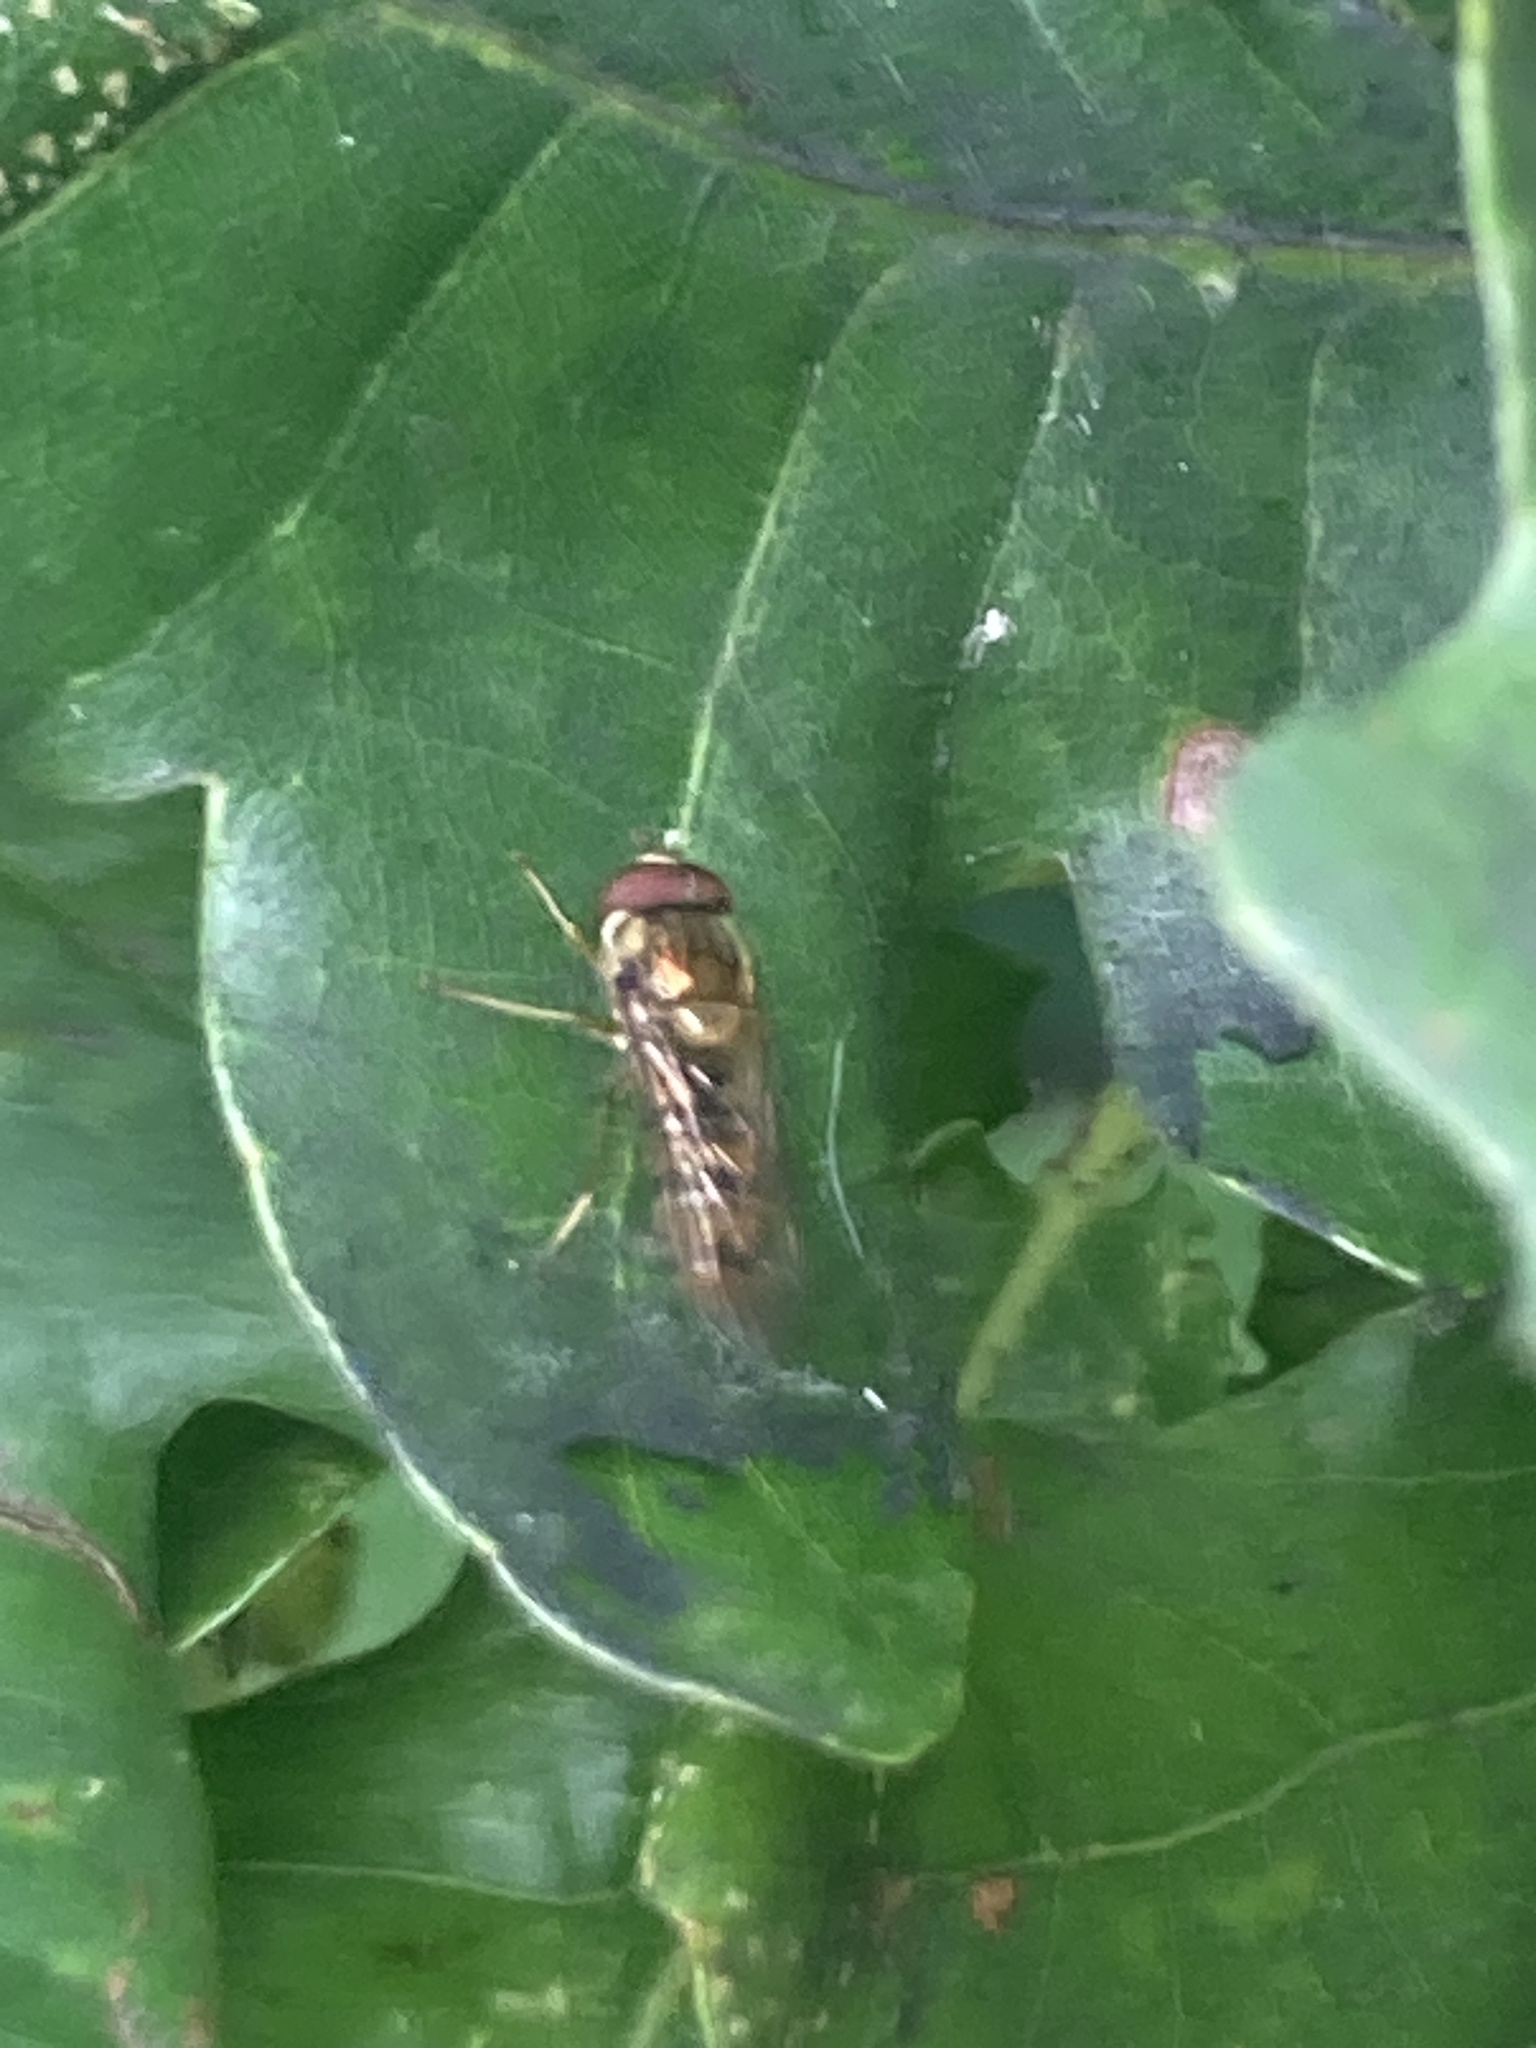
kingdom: Animalia
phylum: Arthropoda
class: Insecta
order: Diptera
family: Syrphidae
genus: Episyrphus
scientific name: Episyrphus balteatus
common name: Marmalade hoverfly
